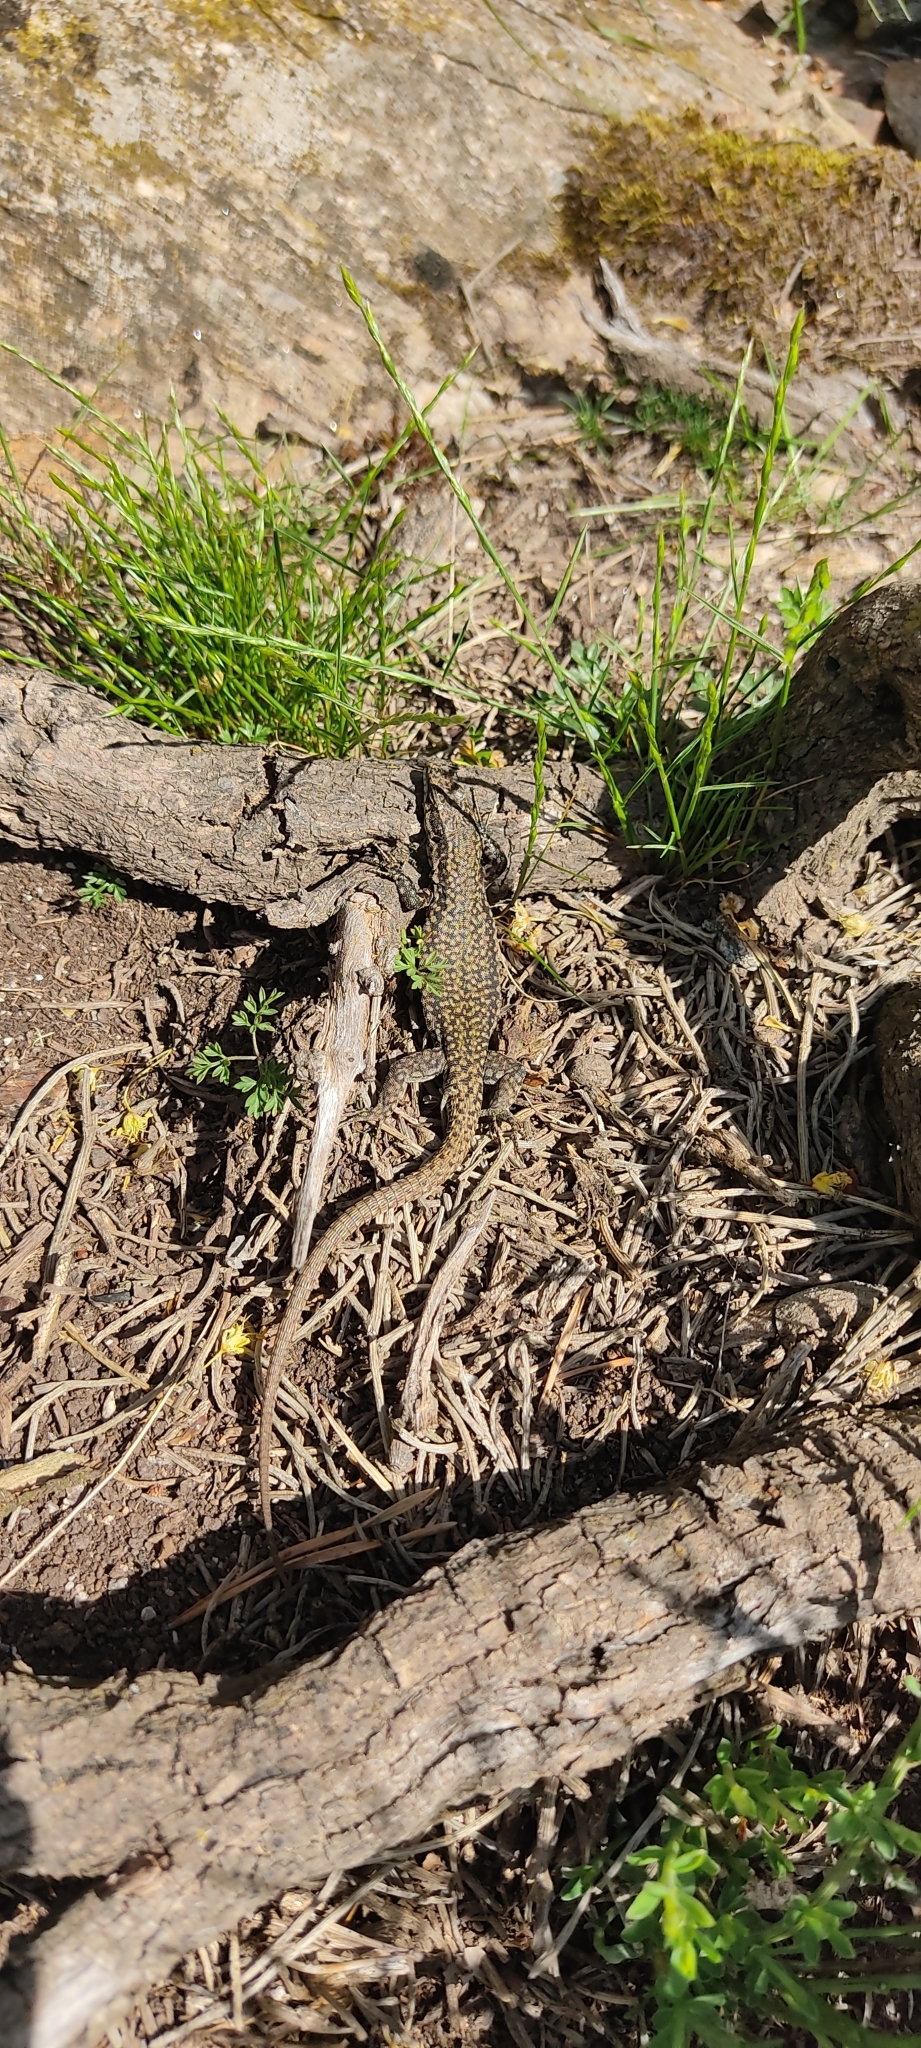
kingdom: Animalia
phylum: Chordata
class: Squamata
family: Lacertidae
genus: Podarcis
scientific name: Podarcis liolepis
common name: Catalonian wall lizard
